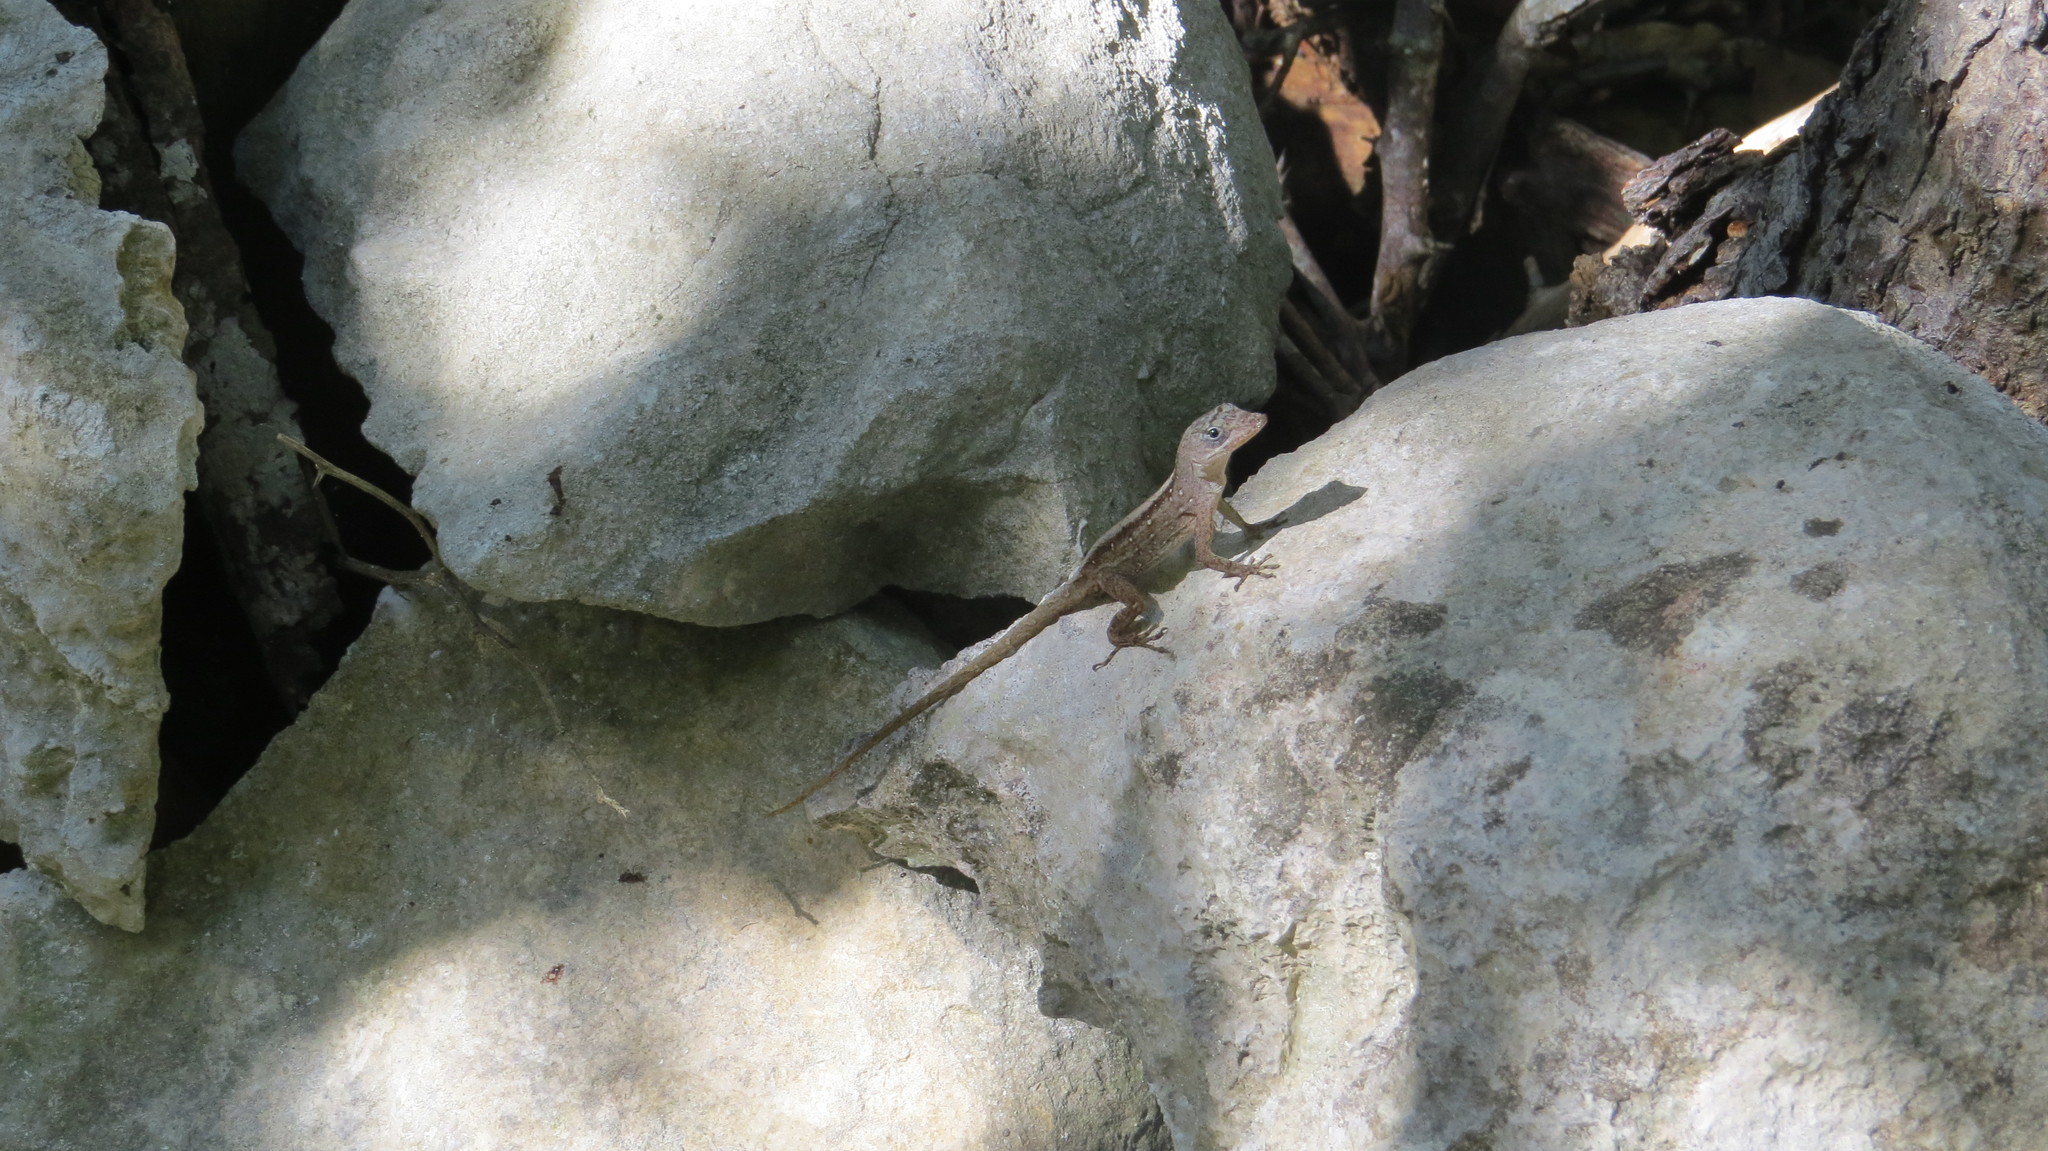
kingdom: Animalia
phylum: Chordata
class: Squamata
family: Dactyloidae
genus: Anolis
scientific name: Anolis sagrei
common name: Brown anole
